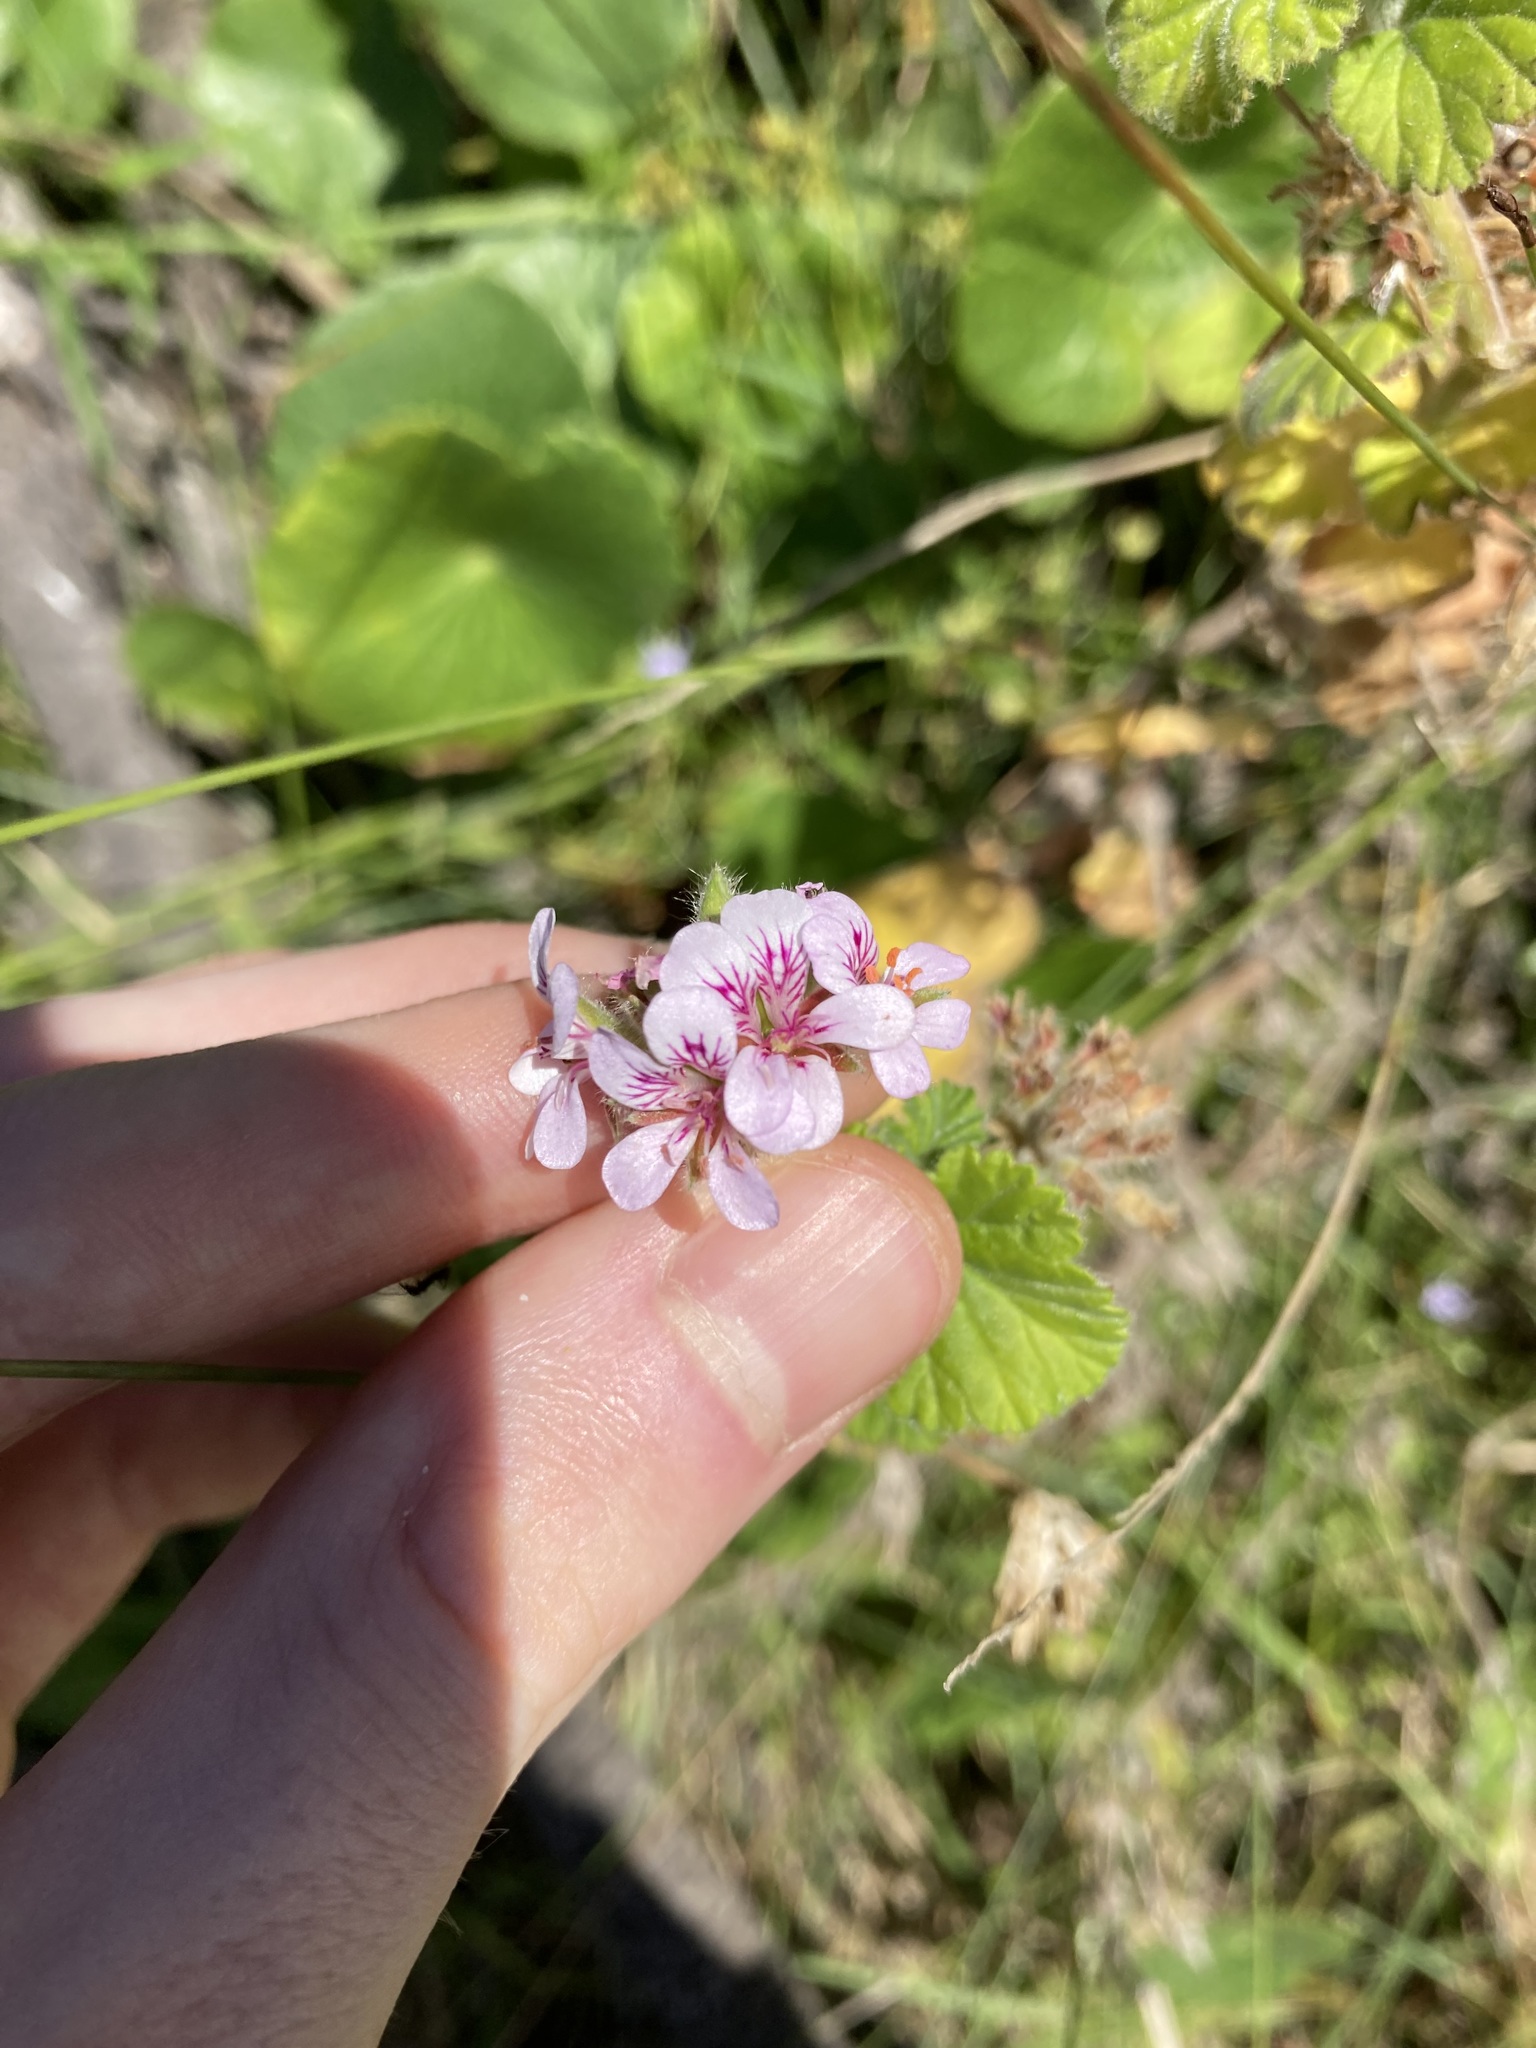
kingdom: Plantae
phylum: Tracheophyta
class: Magnoliopsida
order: Geraniales
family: Geraniaceae
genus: Pelargonium
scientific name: Pelargonium australe
